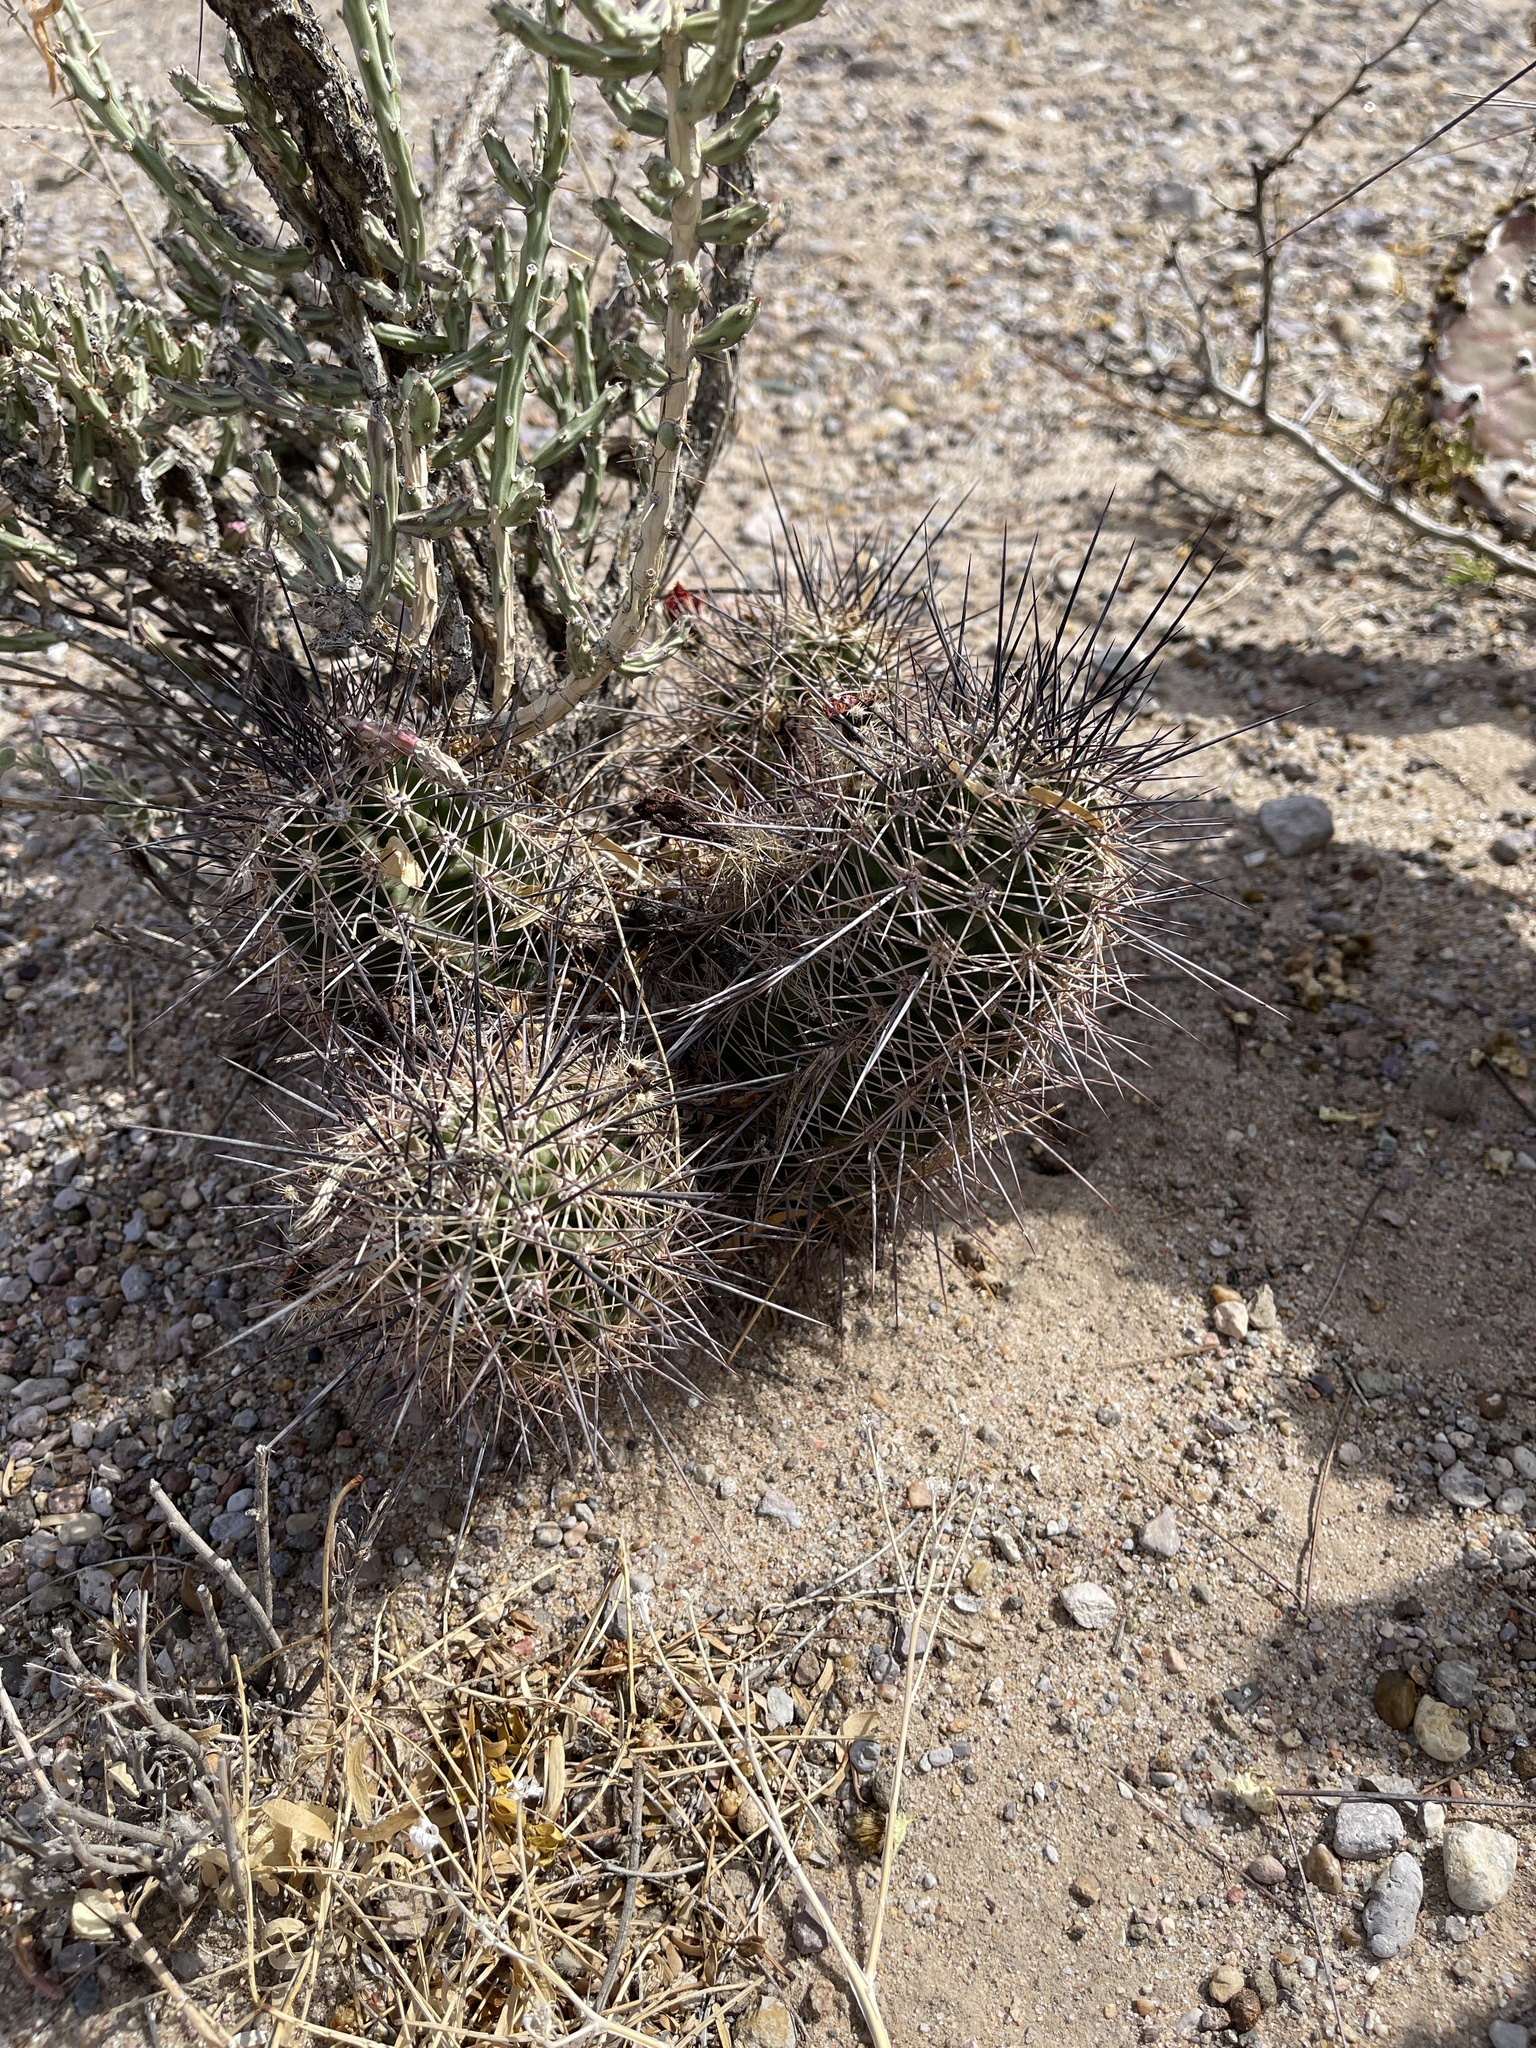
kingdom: Plantae
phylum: Tracheophyta
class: Magnoliopsida
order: Caryophyllales
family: Cactaceae
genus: Echinocereus
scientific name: Echinocereus coccineus
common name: Scarlet hedgehog cactus
